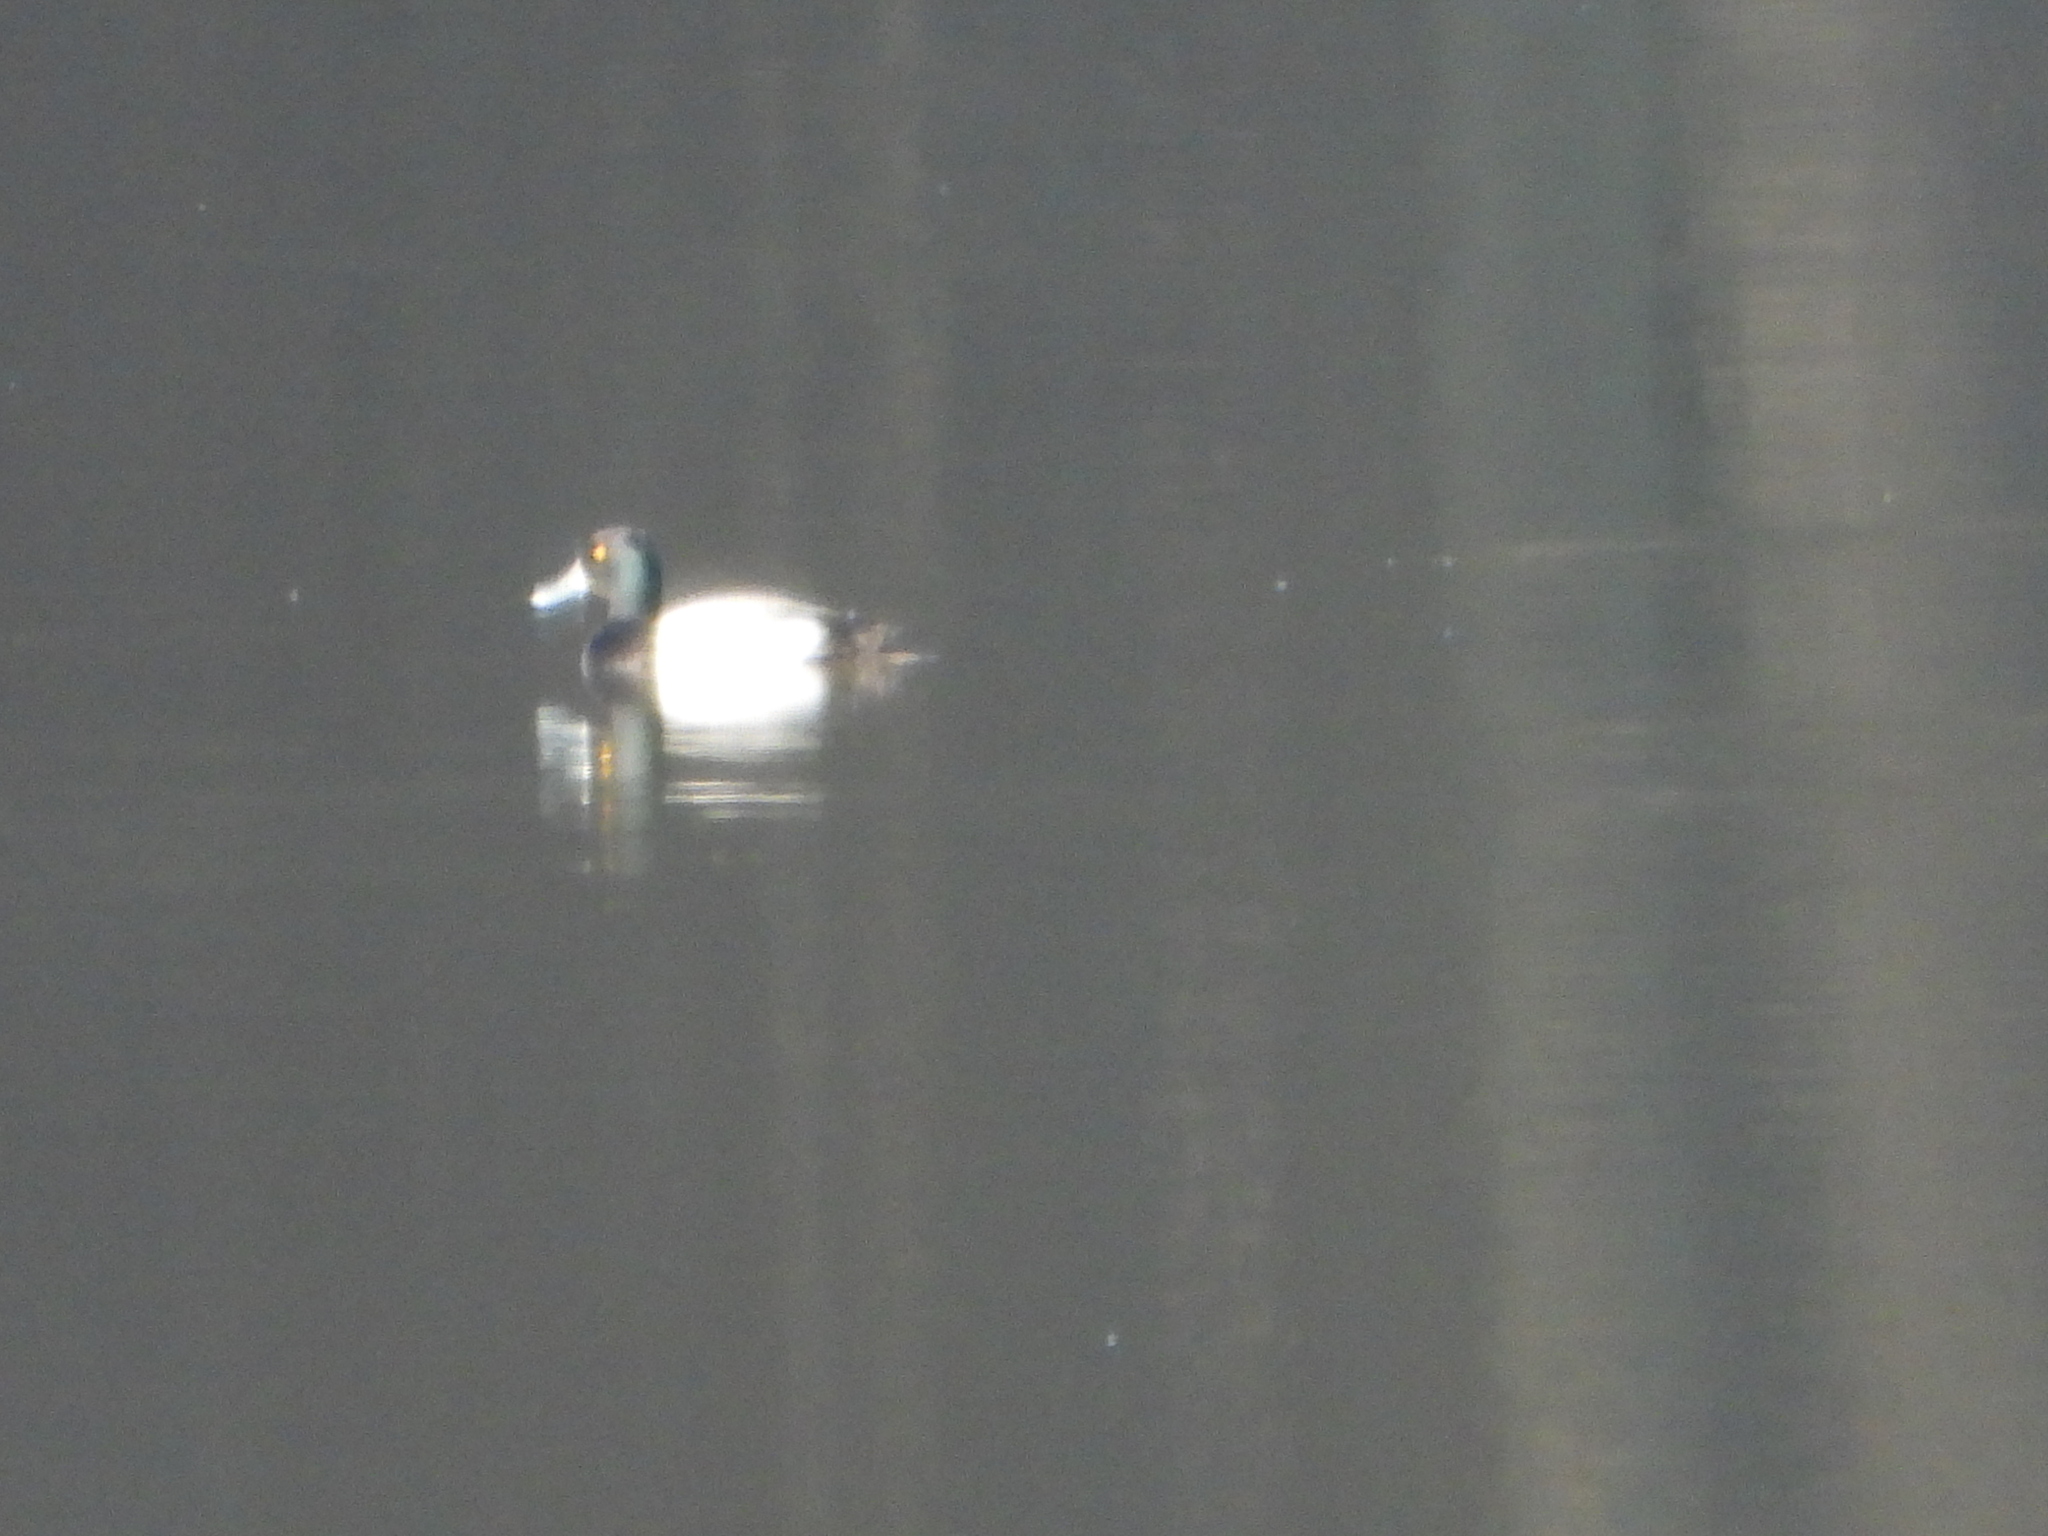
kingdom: Animalia
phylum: Chordata
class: Aves
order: Anseriformes
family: Anatidae
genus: Aythya
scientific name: Aythya marila
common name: Greater scaup
